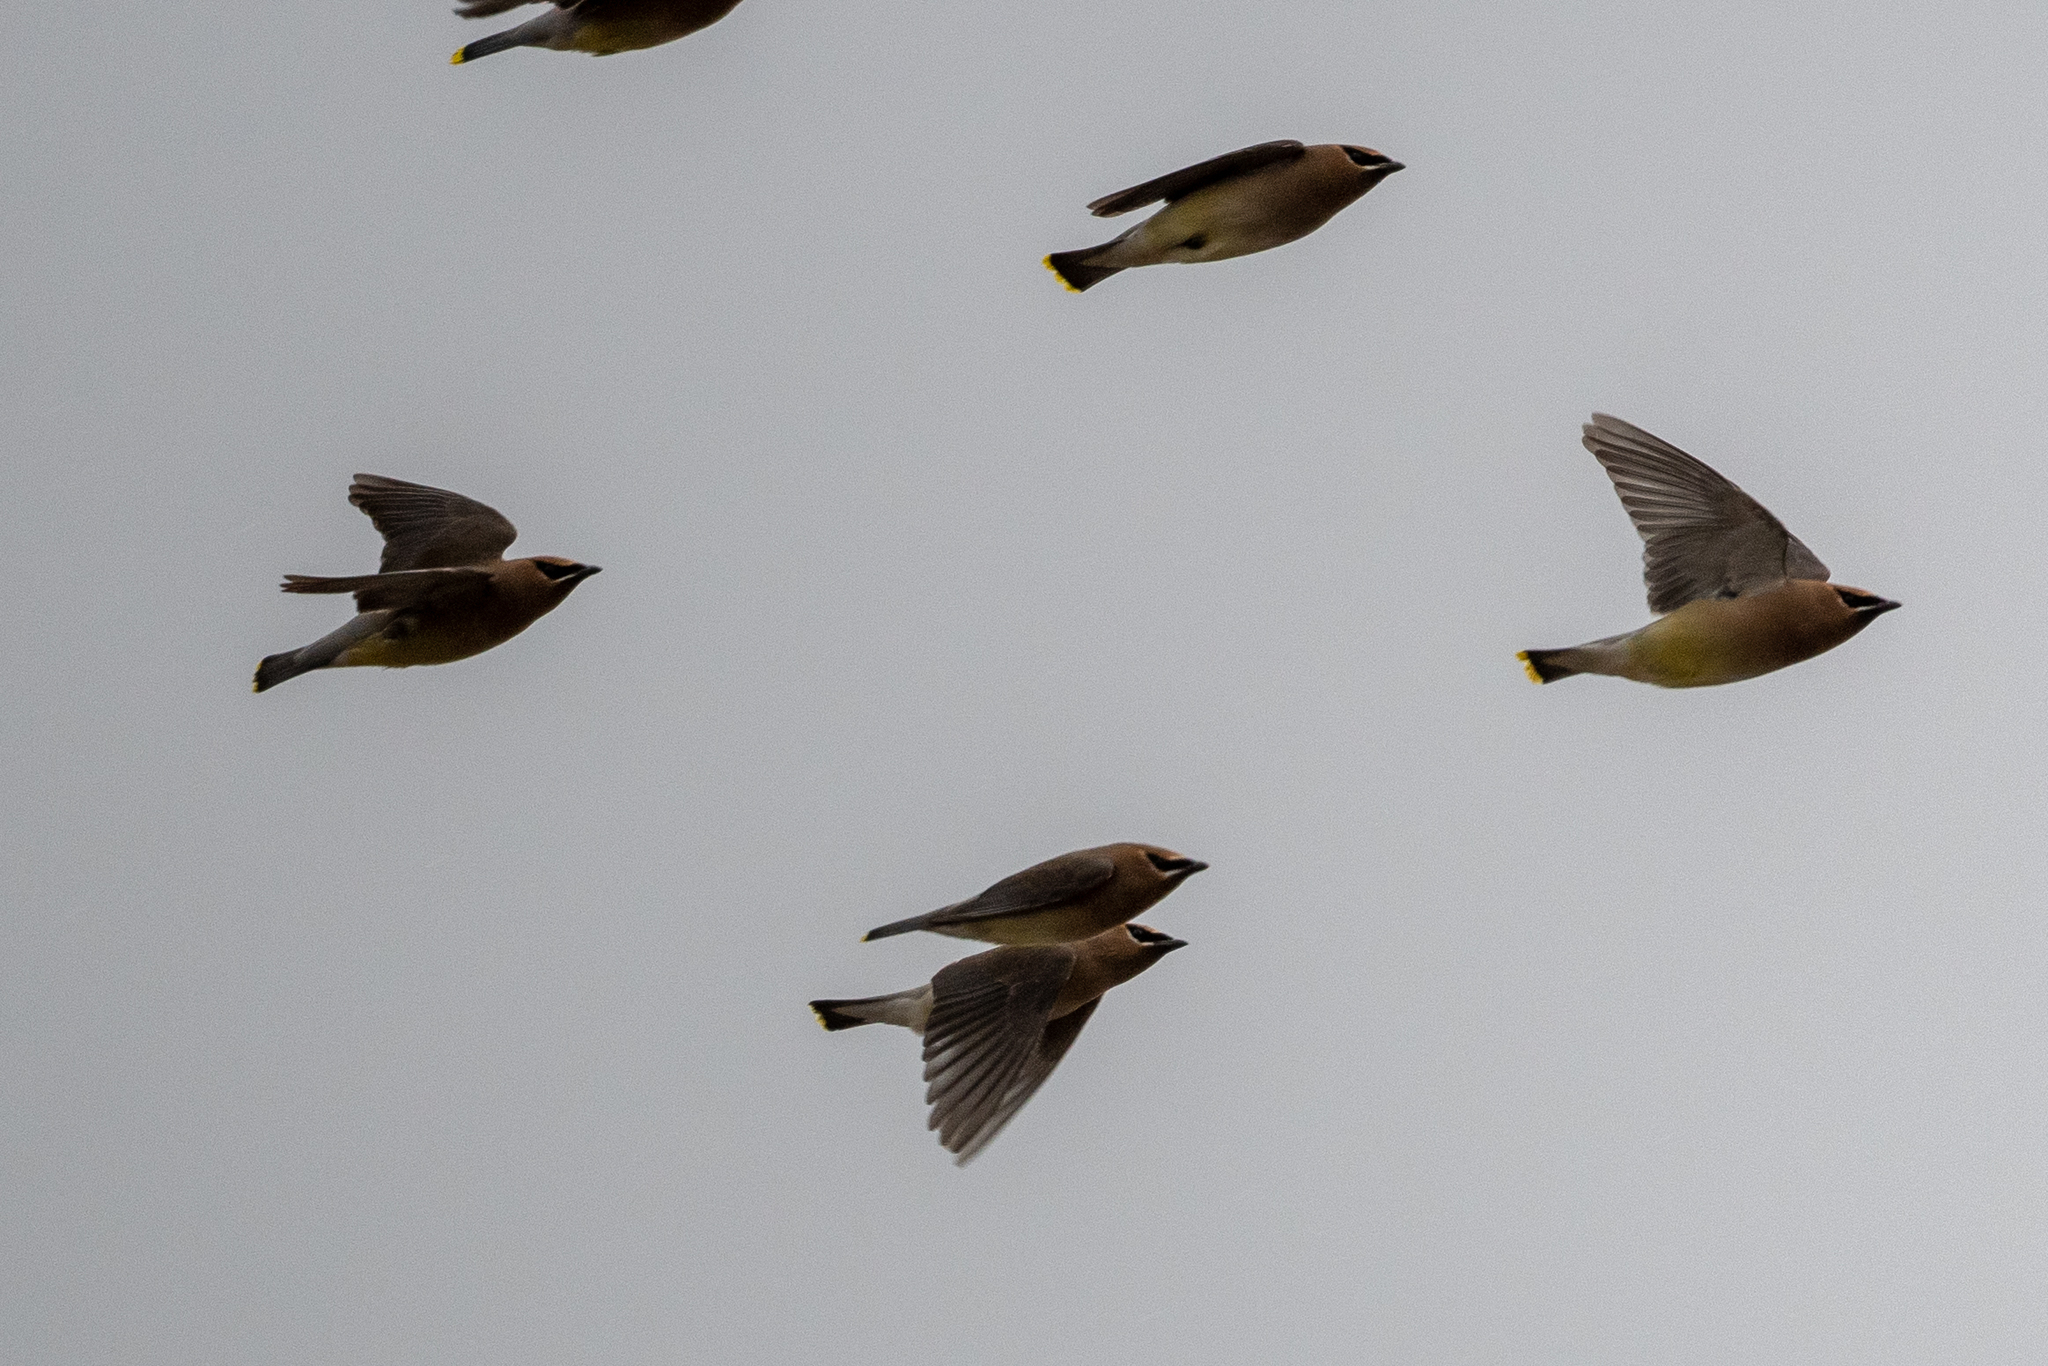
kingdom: Animalia
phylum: Chordata
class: Aves
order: Passeriformes
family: Bombycillidae
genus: Bombycilla
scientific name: Bombycilla cedrorum
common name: Cedar waxwing
